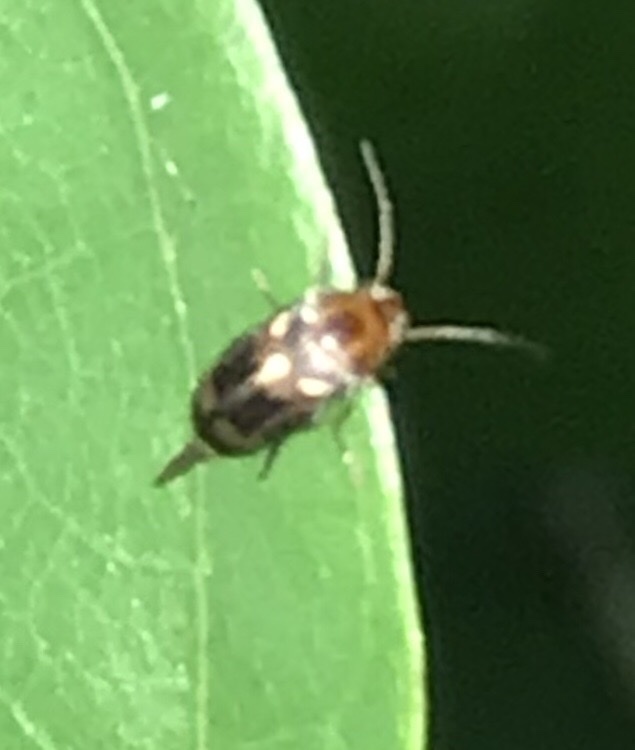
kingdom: Animalia
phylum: Arthropoda
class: Insecta
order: Coleoptera
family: Mordellidae
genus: Falsomordellistena
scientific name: Falsomordellistena hebraica
